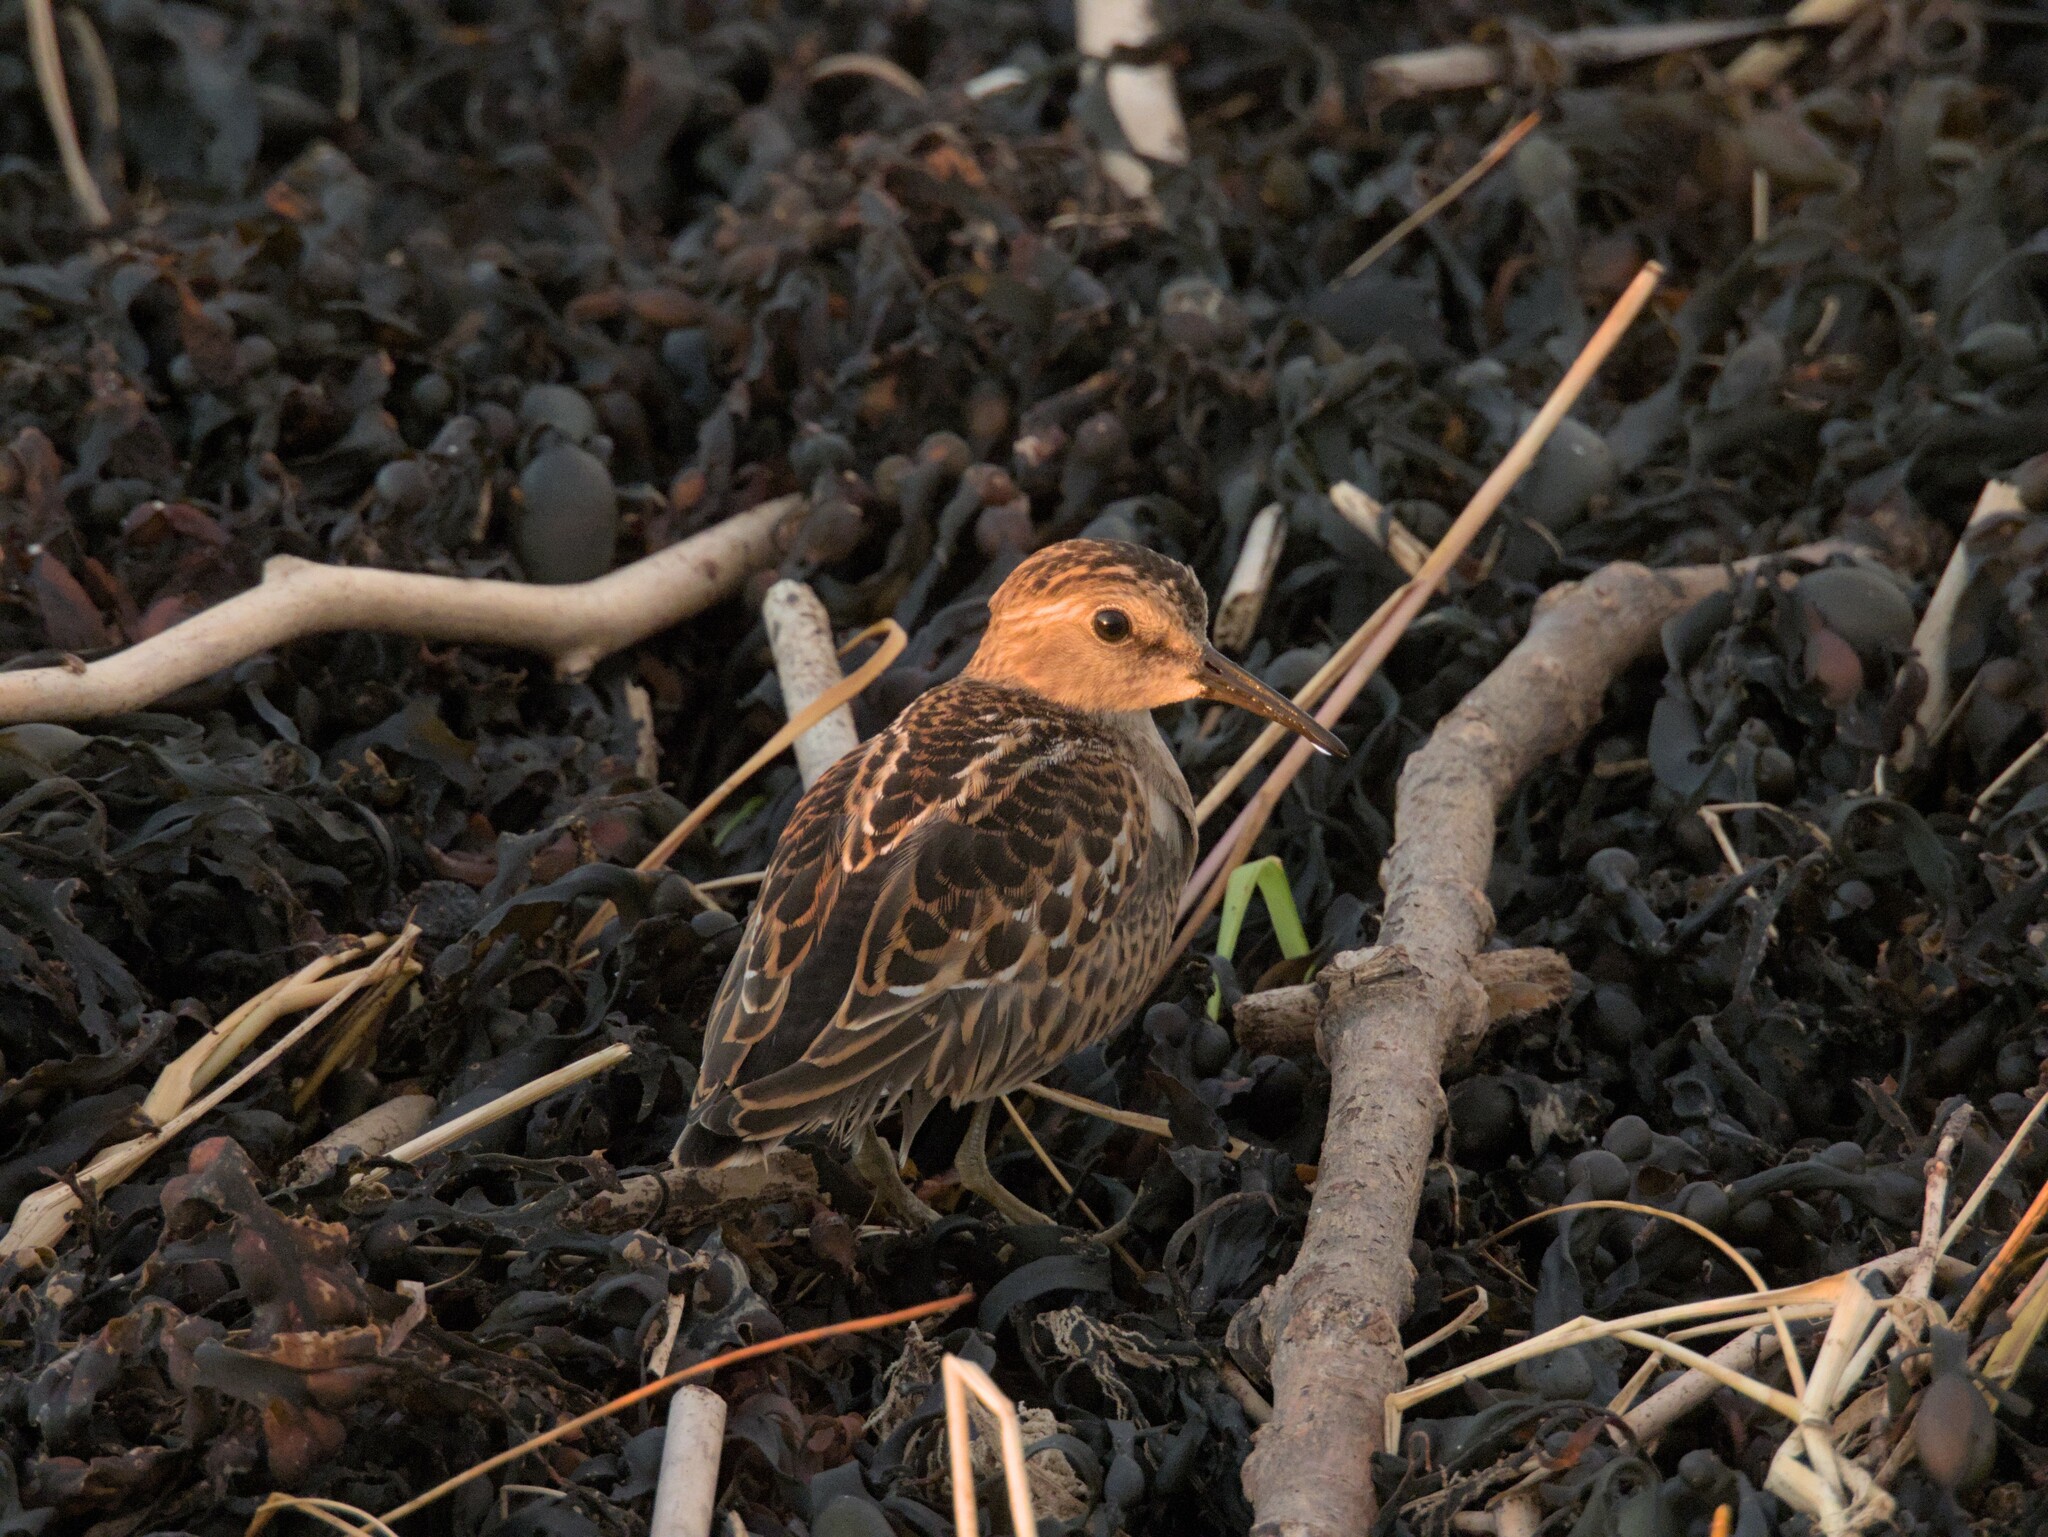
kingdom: Animalia
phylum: Chordata
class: Aves
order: Charadriiformes
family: Scolopacidae
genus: Calidris
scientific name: Calidris minutilla
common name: Least sandpiper
